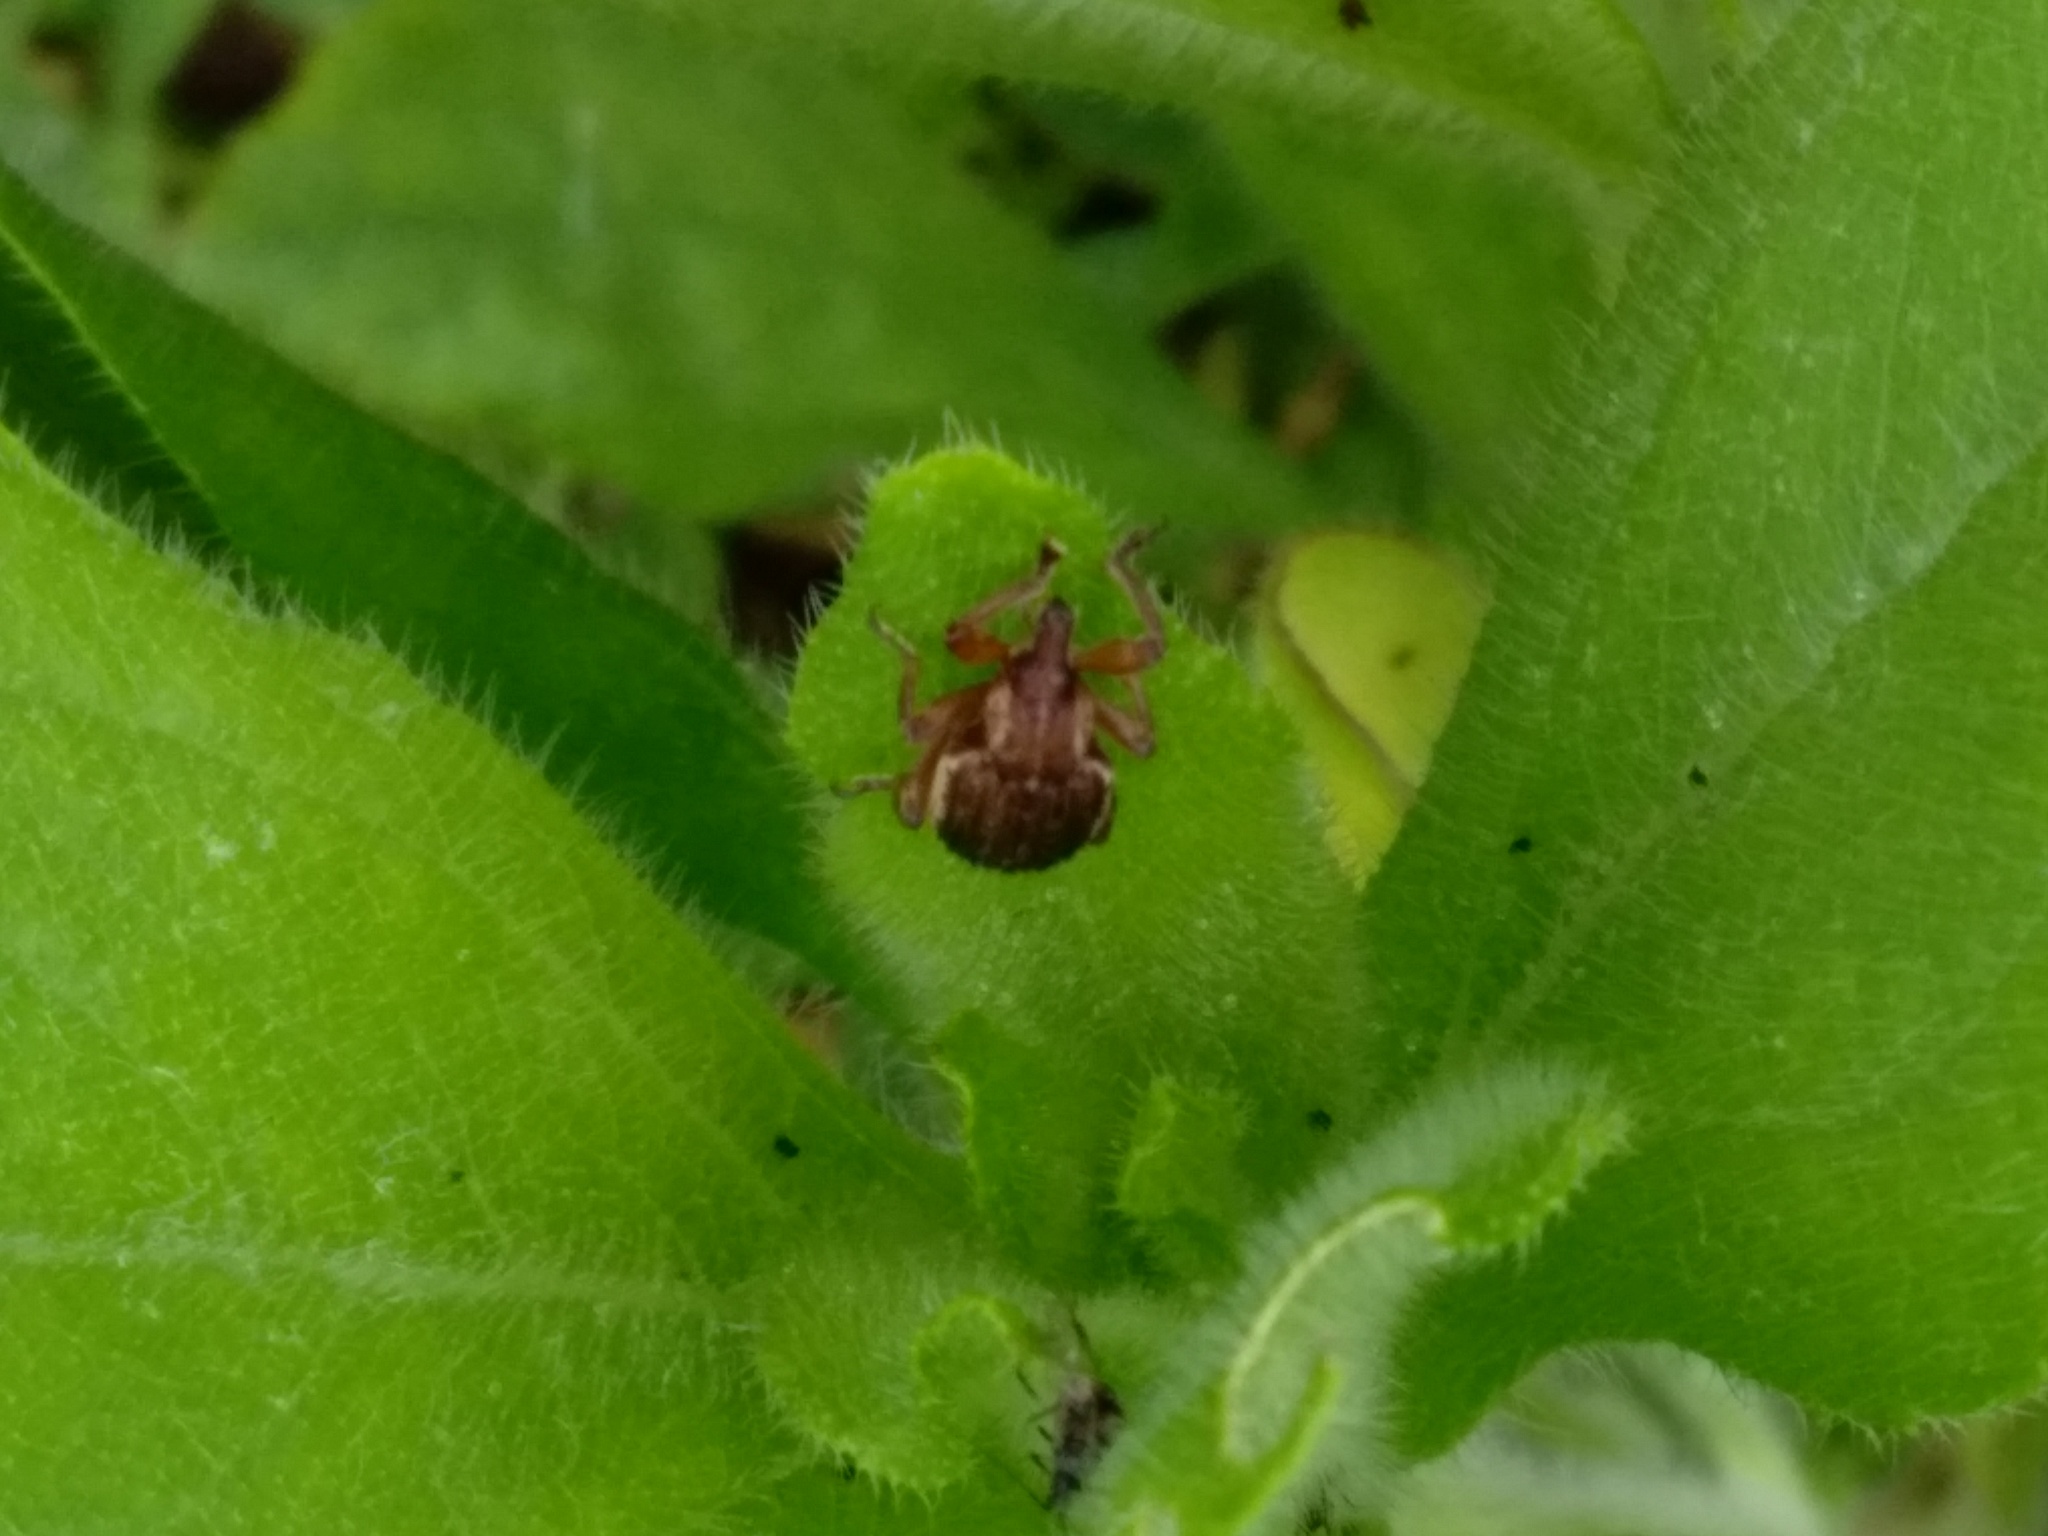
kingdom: Animalia
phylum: Arthropoda
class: Insecta
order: Coleoptera
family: Curculionidae
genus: Brachypera
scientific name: Brachypera zoilus
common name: Clover leaf weevil
